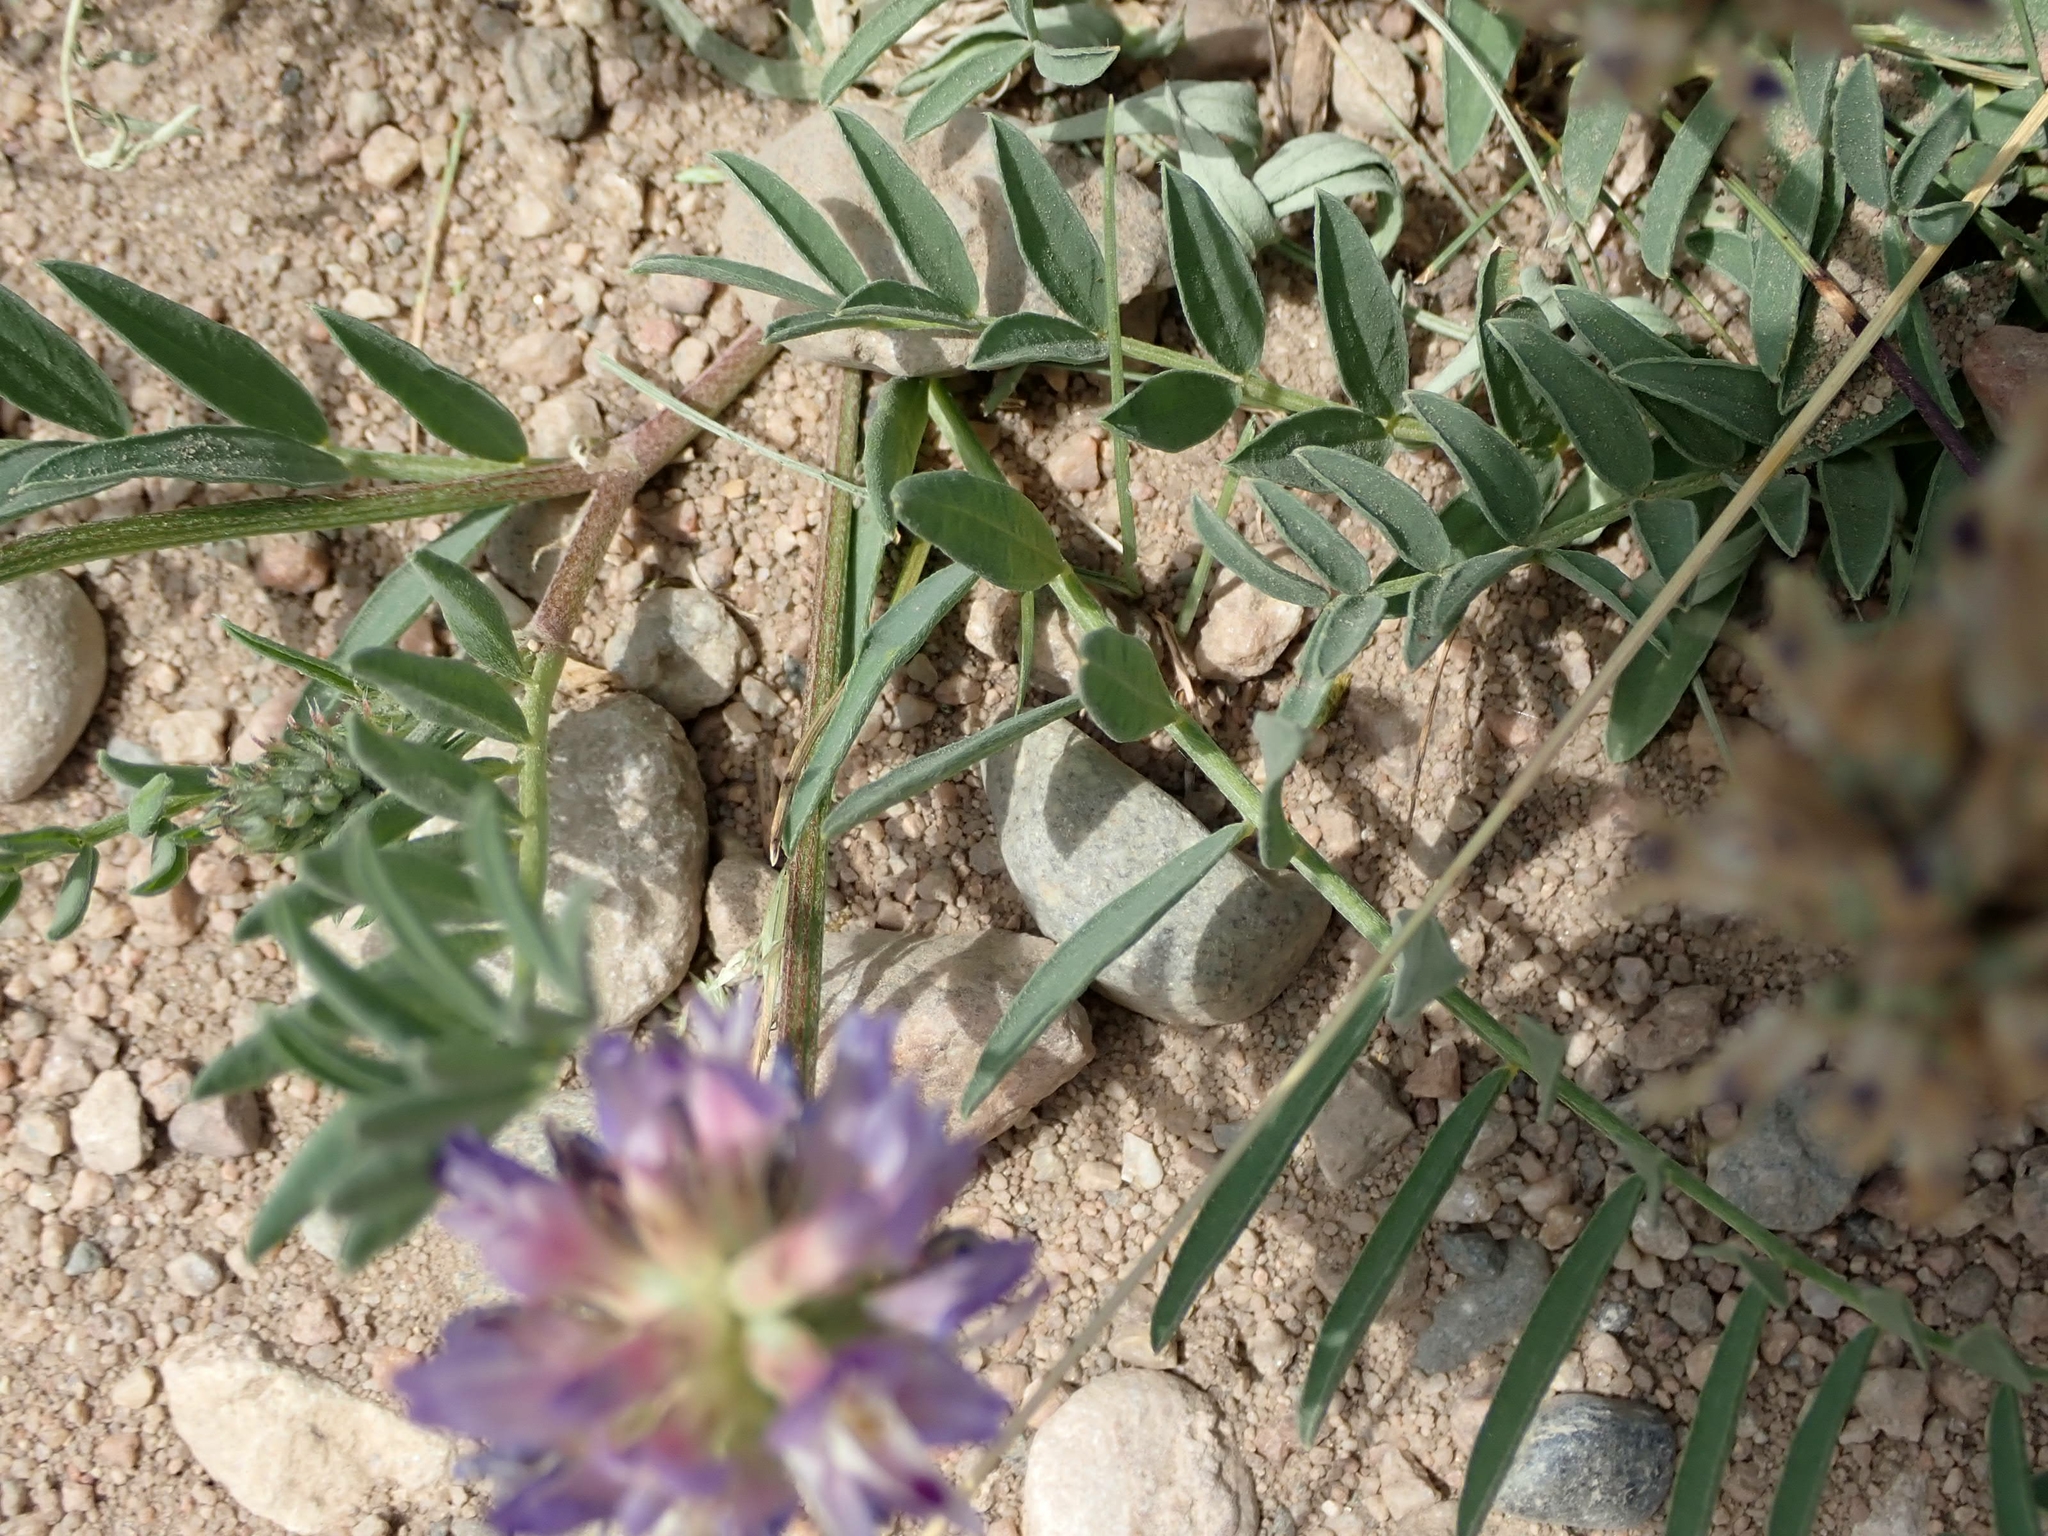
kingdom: Plantae
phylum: Tracheophyta
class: Magnoliopsida
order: Fabales
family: Fabaceae
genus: Astragalus
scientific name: Astragalus laxmannii
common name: Laxmann's milk-vetch
